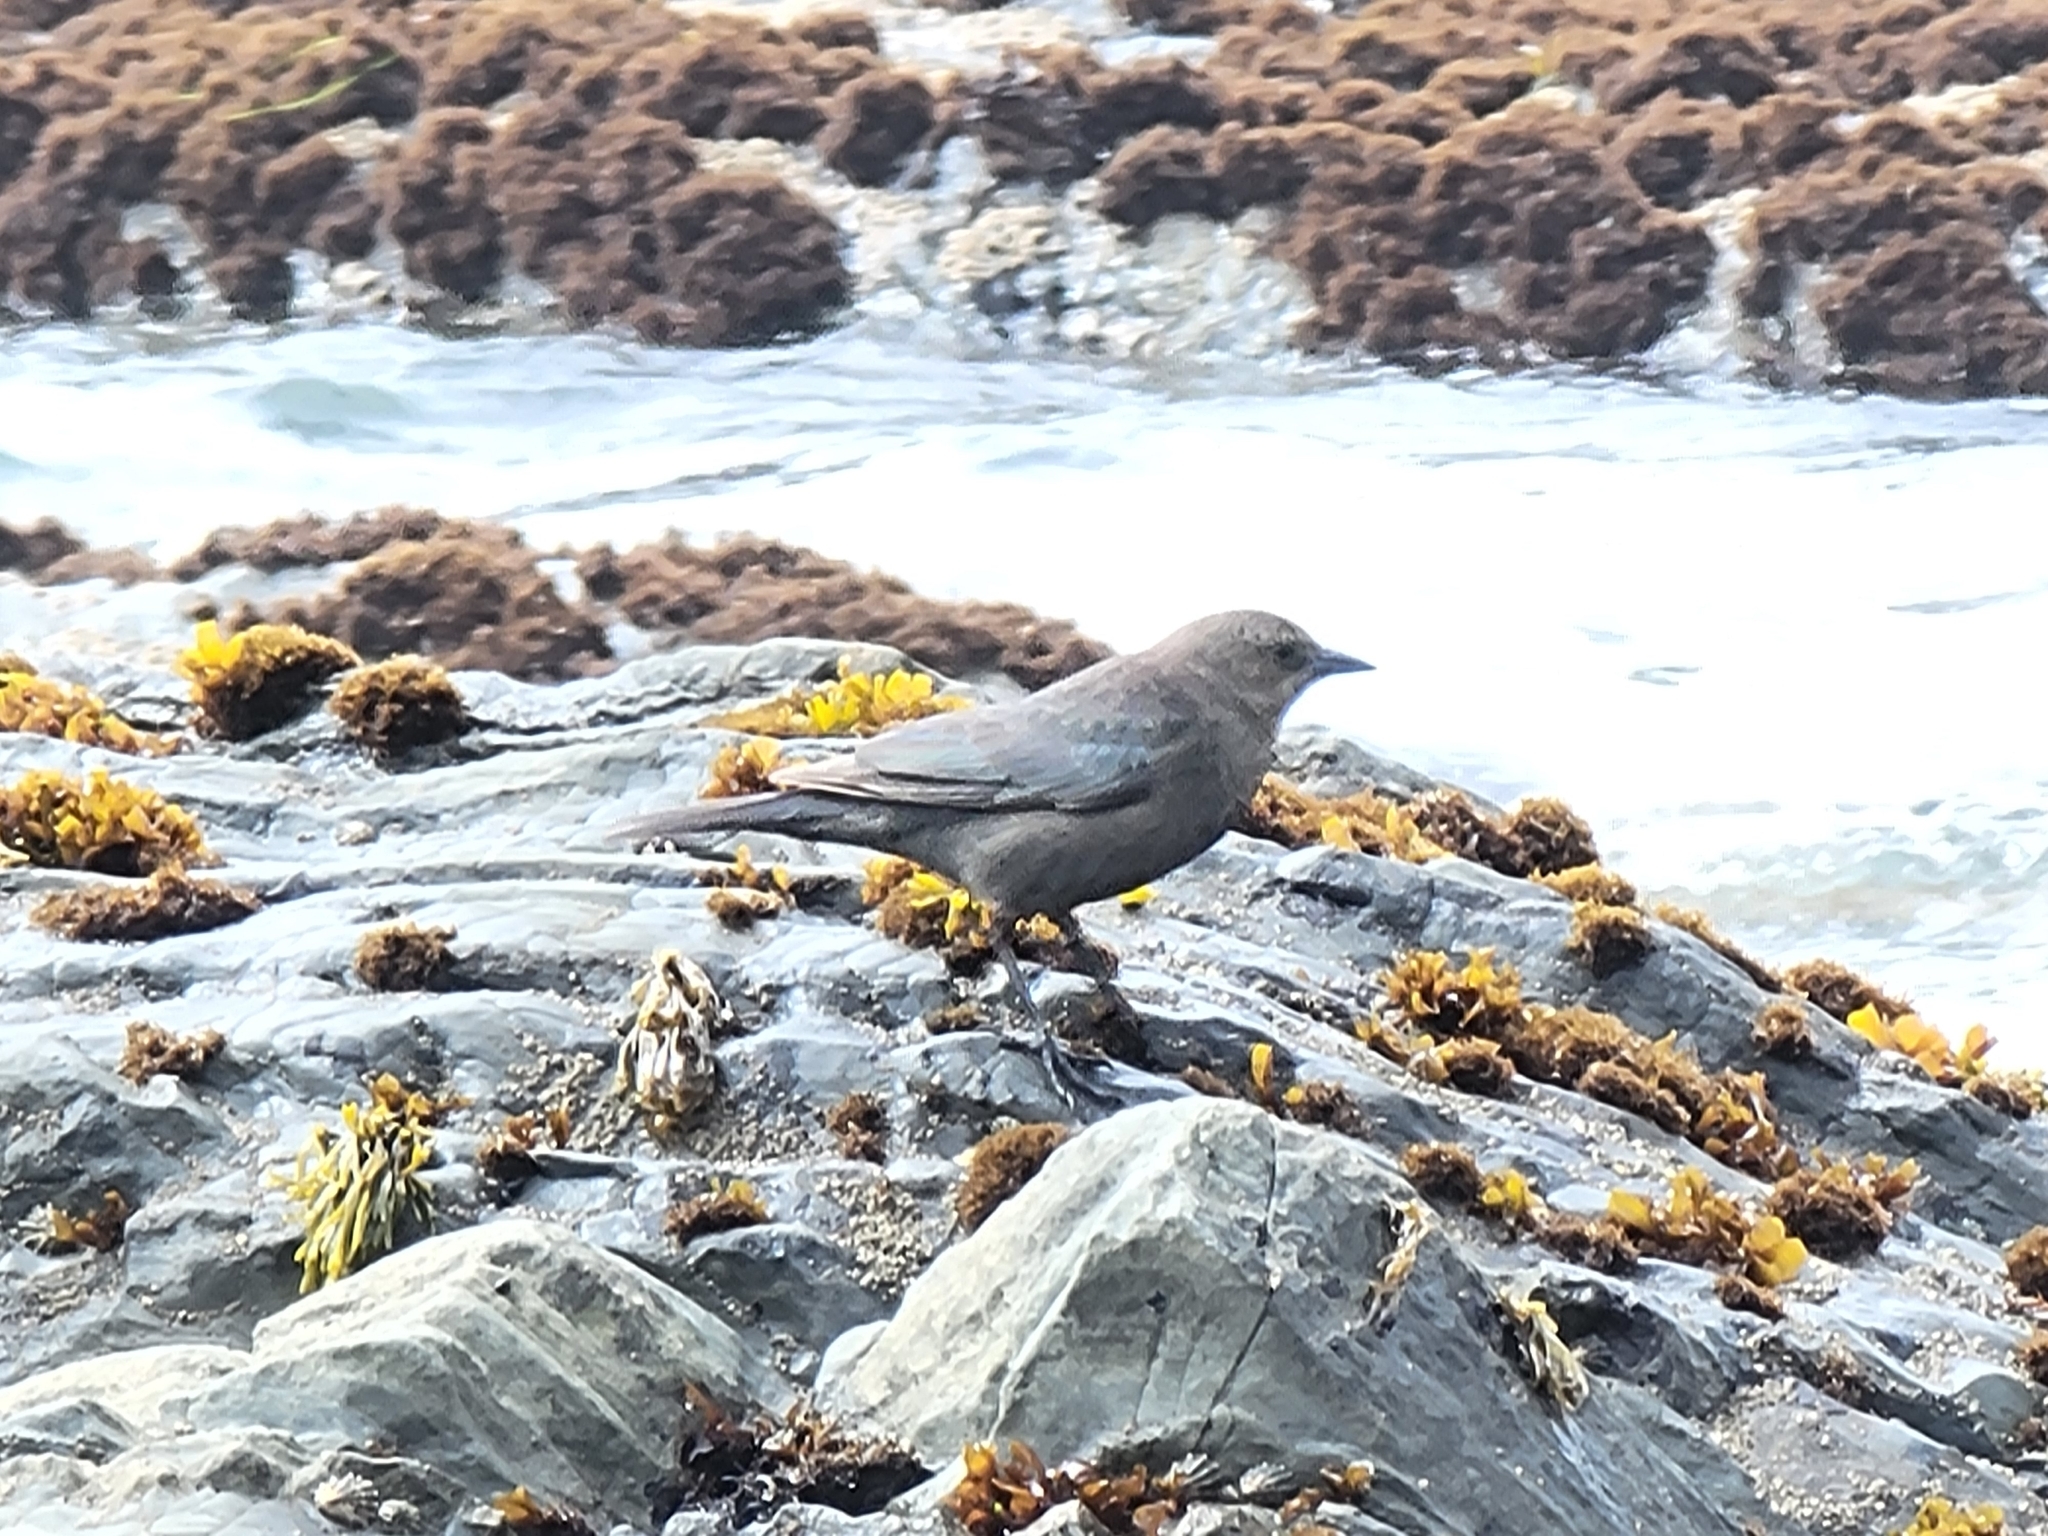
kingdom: Animalia
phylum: Chordata
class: Aves
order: Passeriformes
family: Icteridae
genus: Euphagus
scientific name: Euphagus cyanocephalus
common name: Brewer's blackbird
